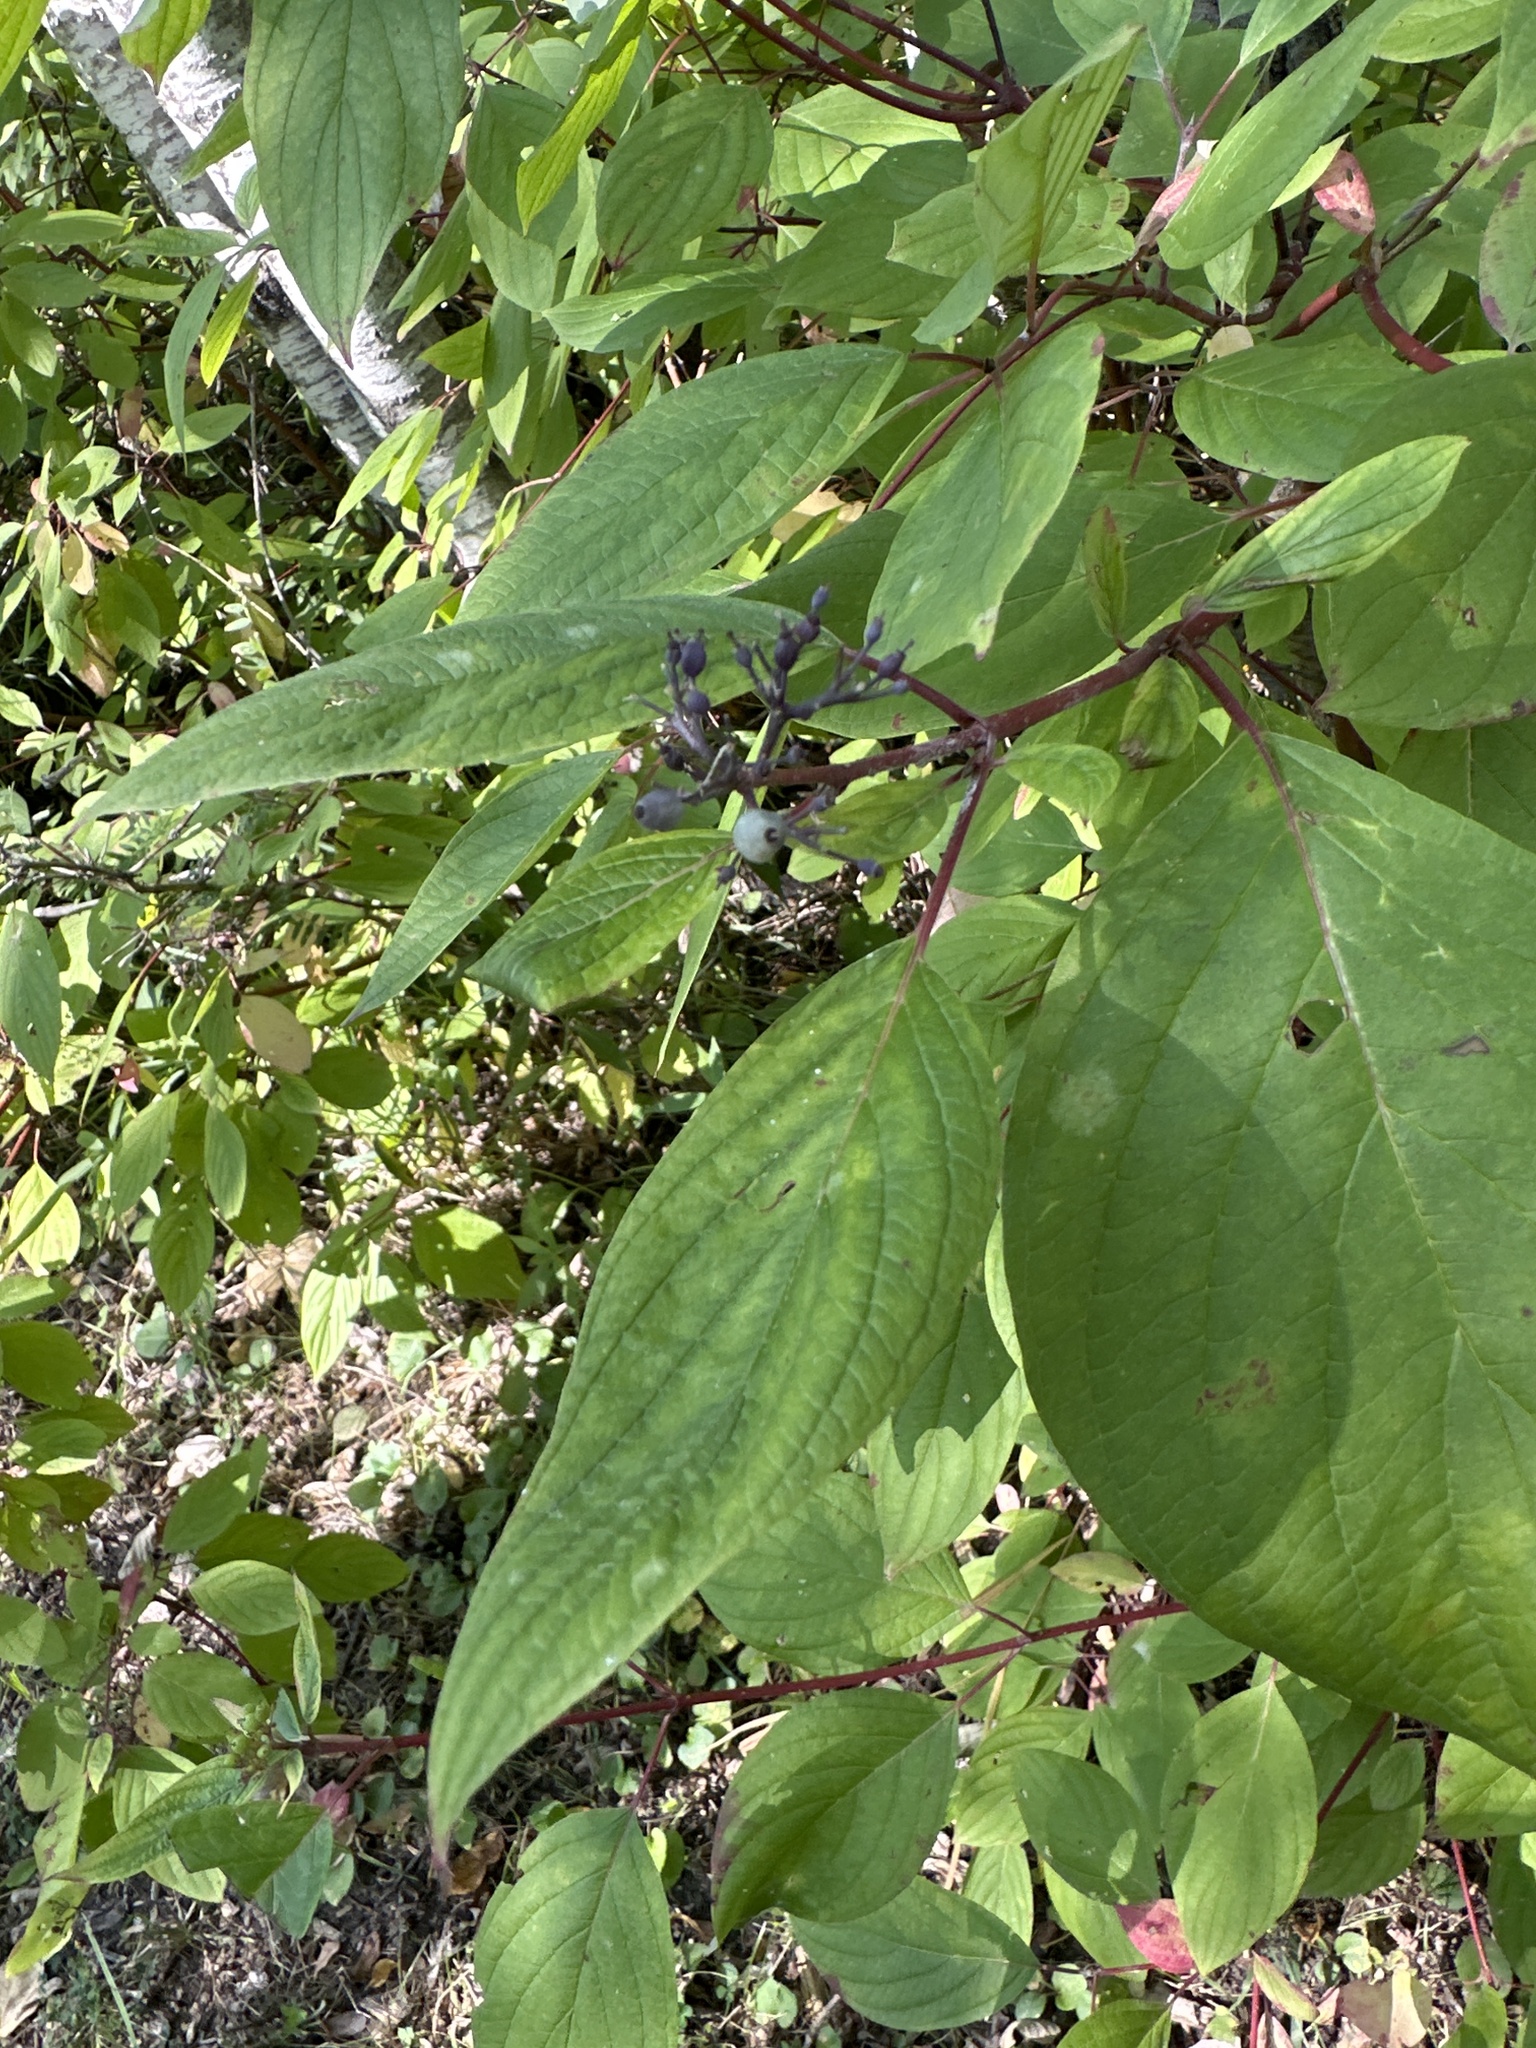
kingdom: Plantae
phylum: Tracheophyta
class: Magnoliopsida
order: Cornales
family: Cornaceae
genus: Cornus
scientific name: Cornus sericea
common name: Red-osier dogwood
